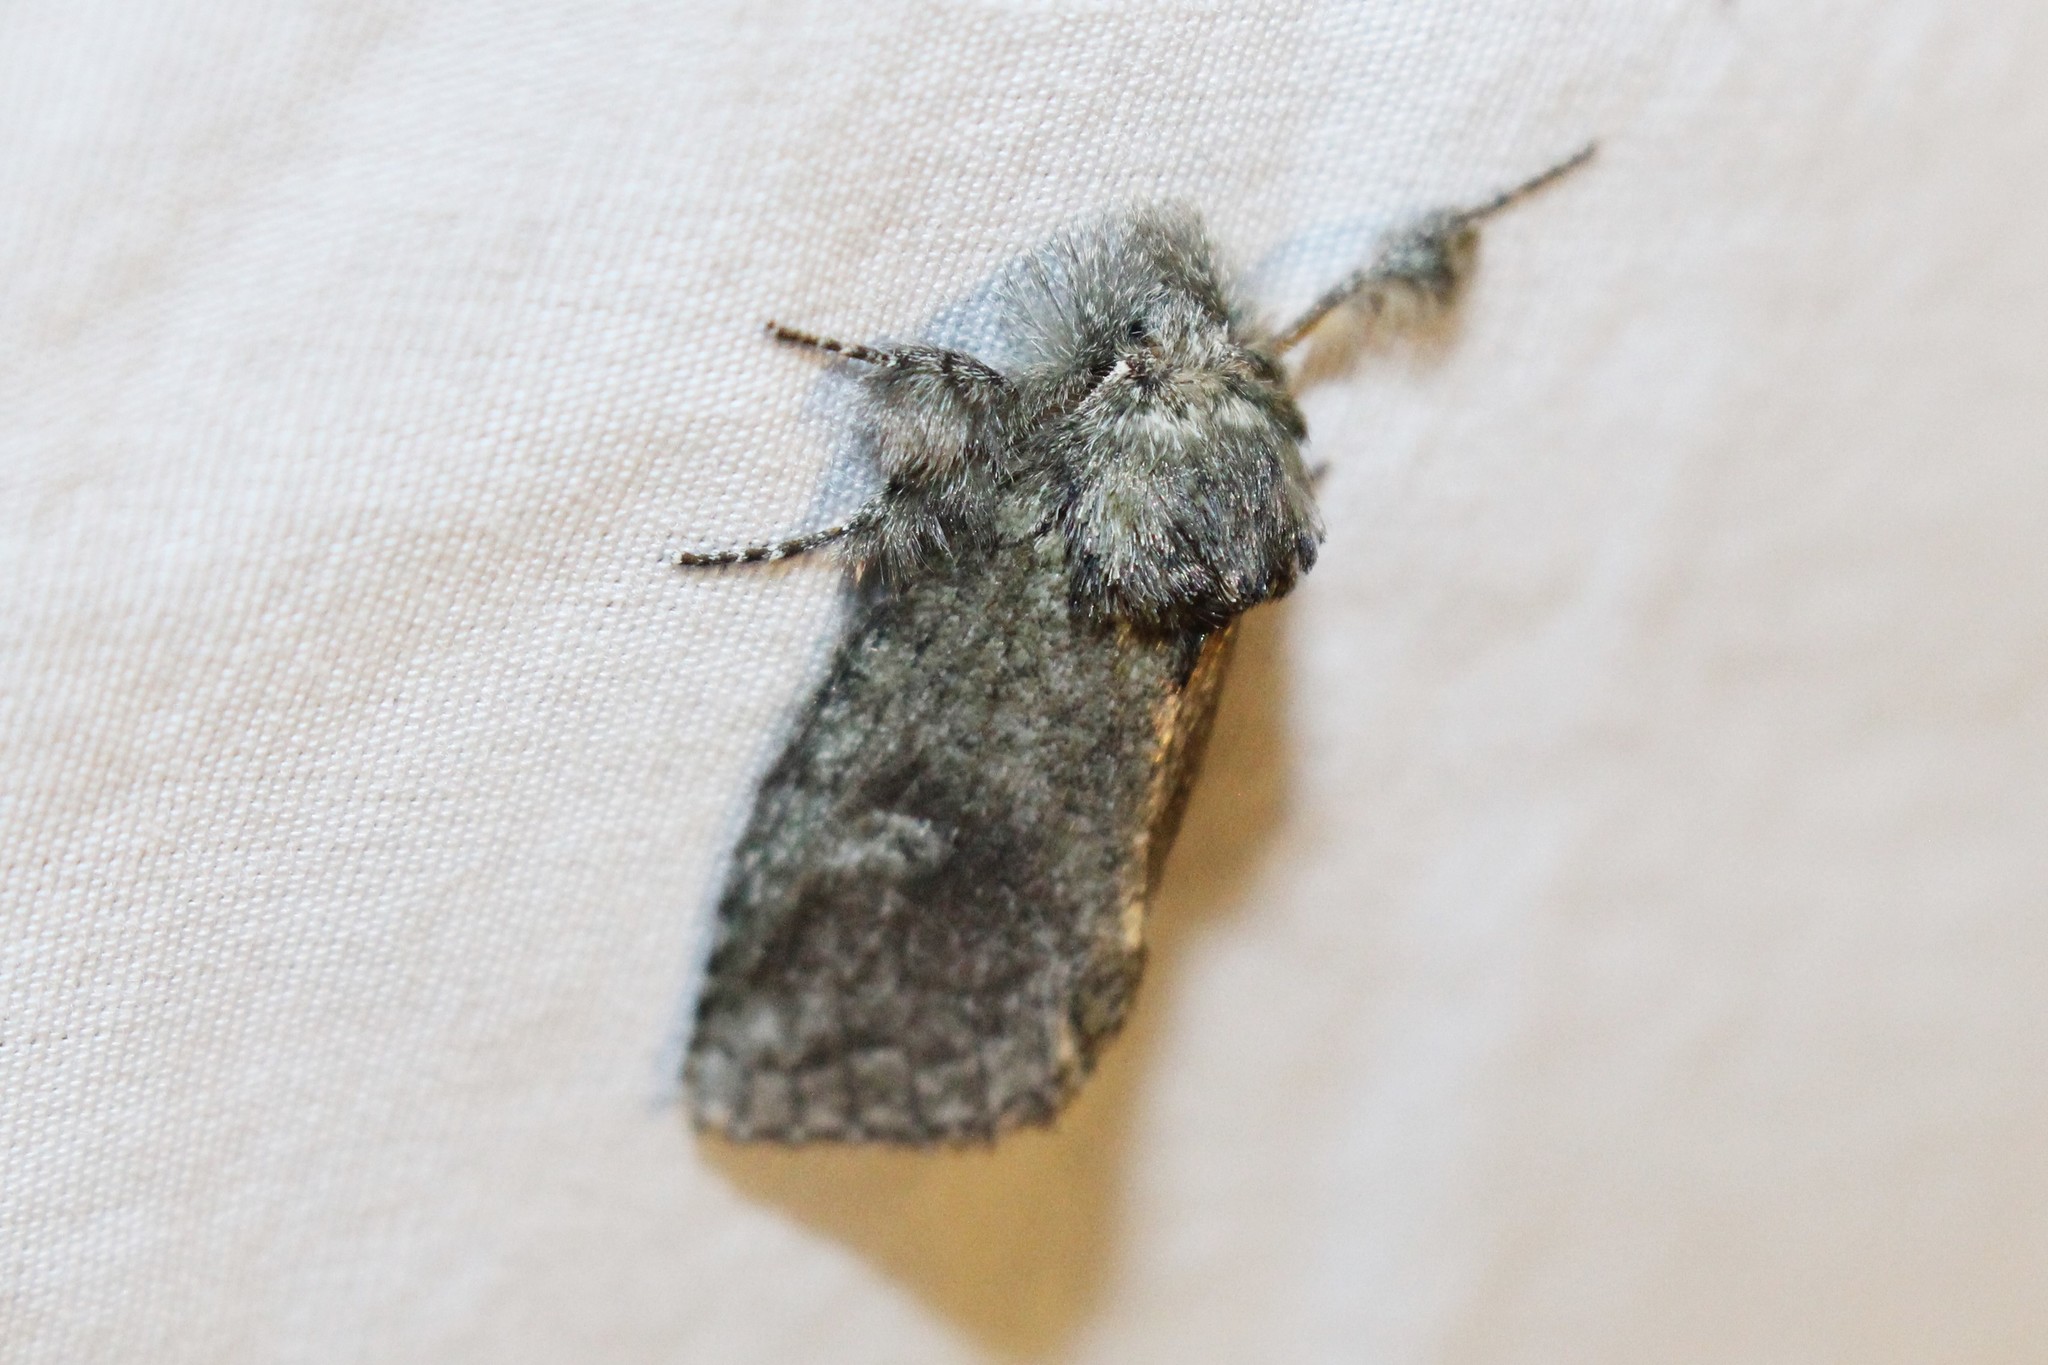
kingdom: Animalia
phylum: Arthropoda
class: Insecta
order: Lepidoptera
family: Notodontidae
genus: Disphragis
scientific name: Disphragis Cecrita guttivitta
